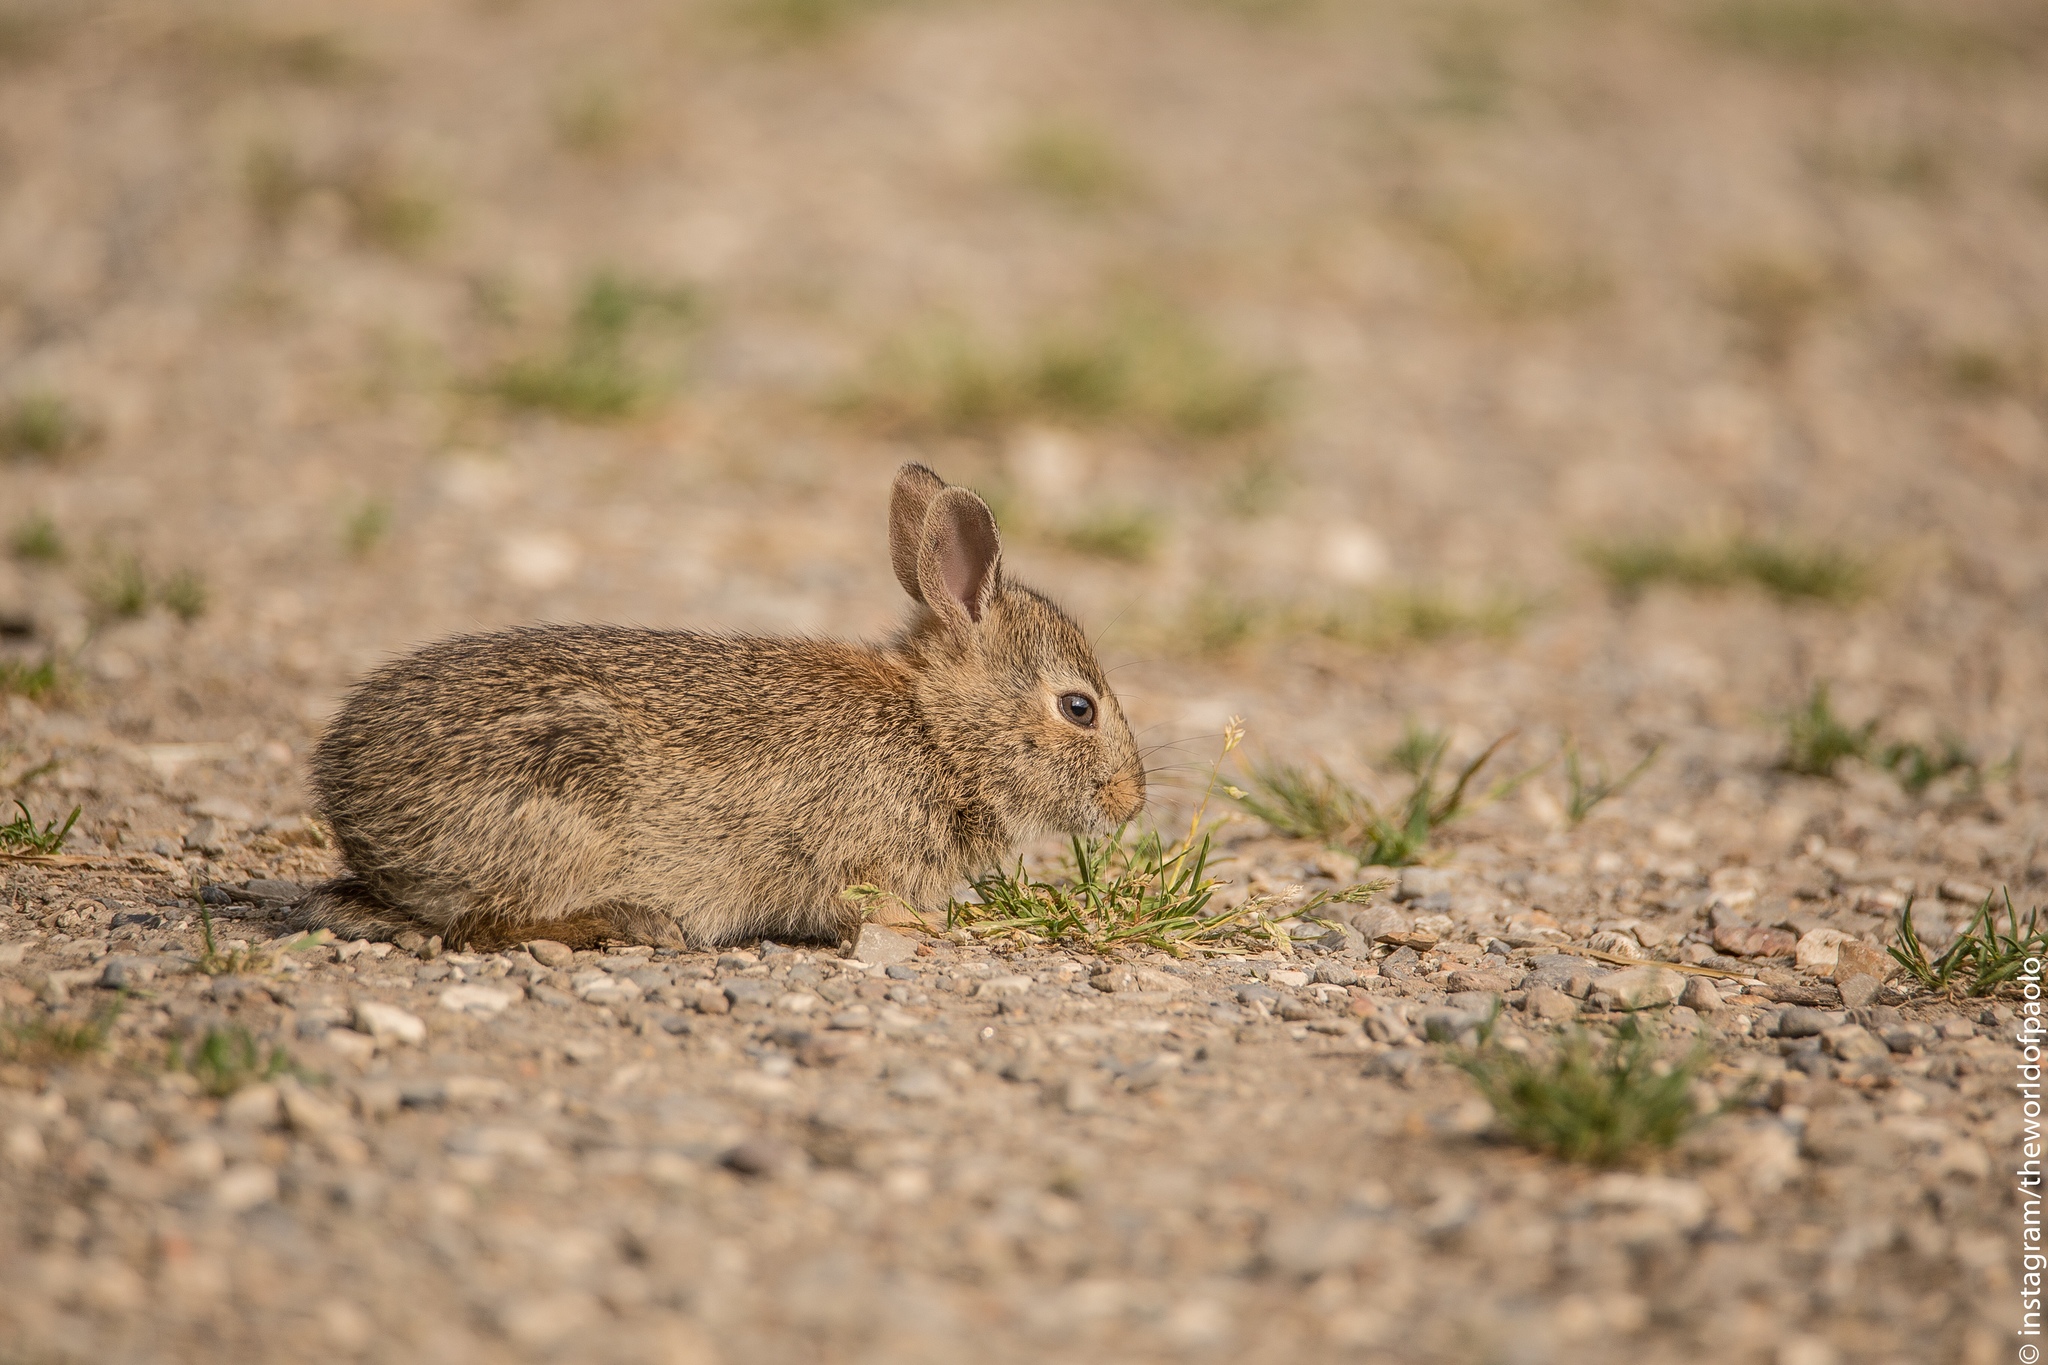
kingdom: Animalia
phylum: Chordata
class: Mammalia
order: Lagomorpha
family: Leporidae
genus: Sylvilagus
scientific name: Sylvilagus floridanus
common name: Eastern cottontail
